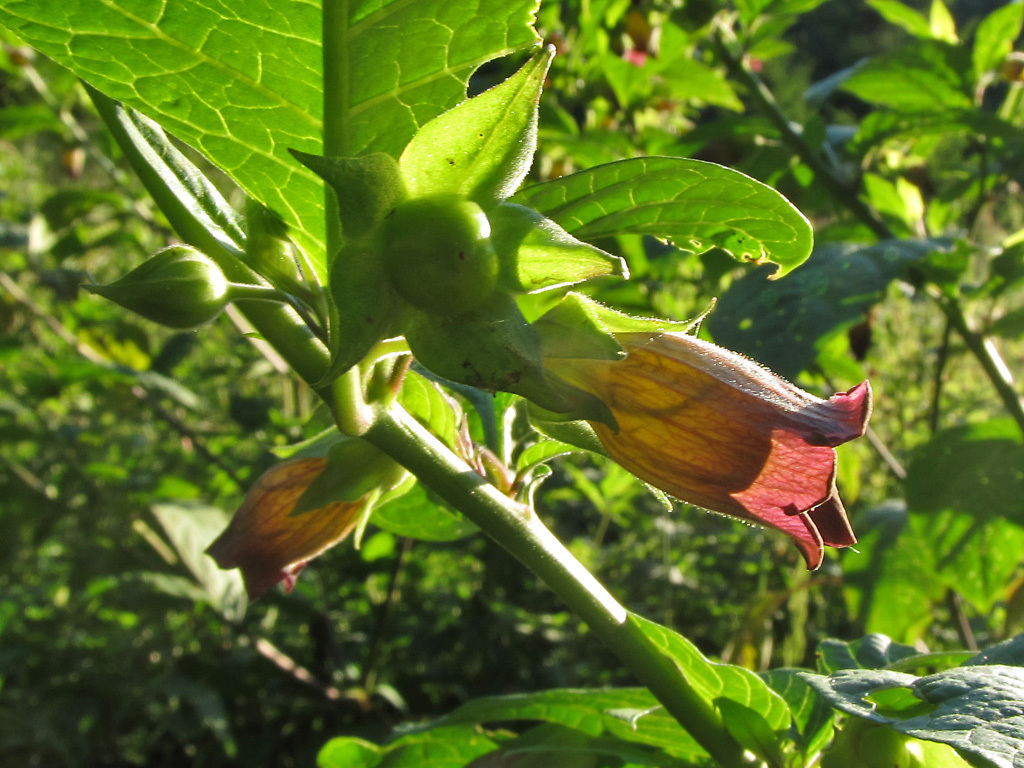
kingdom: Plantae
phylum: Tracheophyta
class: Magnoliopsida
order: Solanales
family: Solanaceae
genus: Atropa
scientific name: Atropa belladonna
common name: Deadly nightshade
